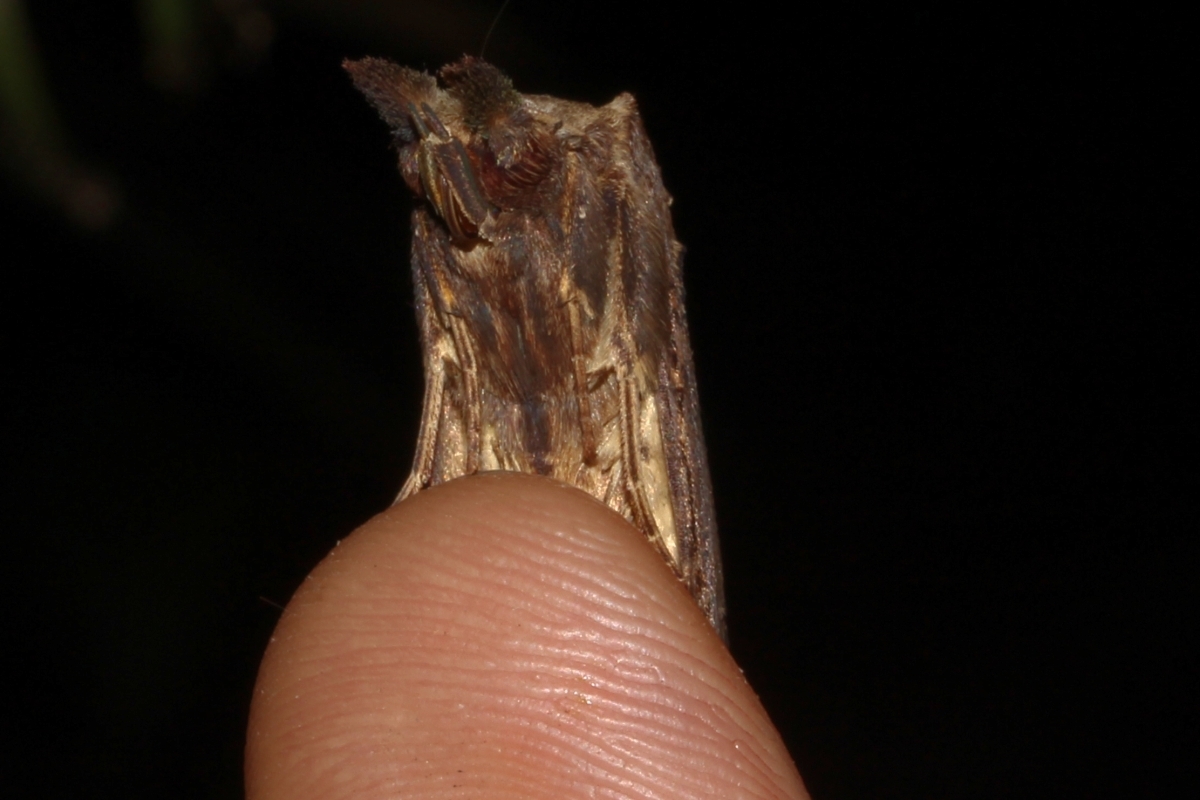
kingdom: Animalia
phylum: Arthropoda
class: Insecta
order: Lepidoptera
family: Notodontidae
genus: Nystalea
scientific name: Nystalea
